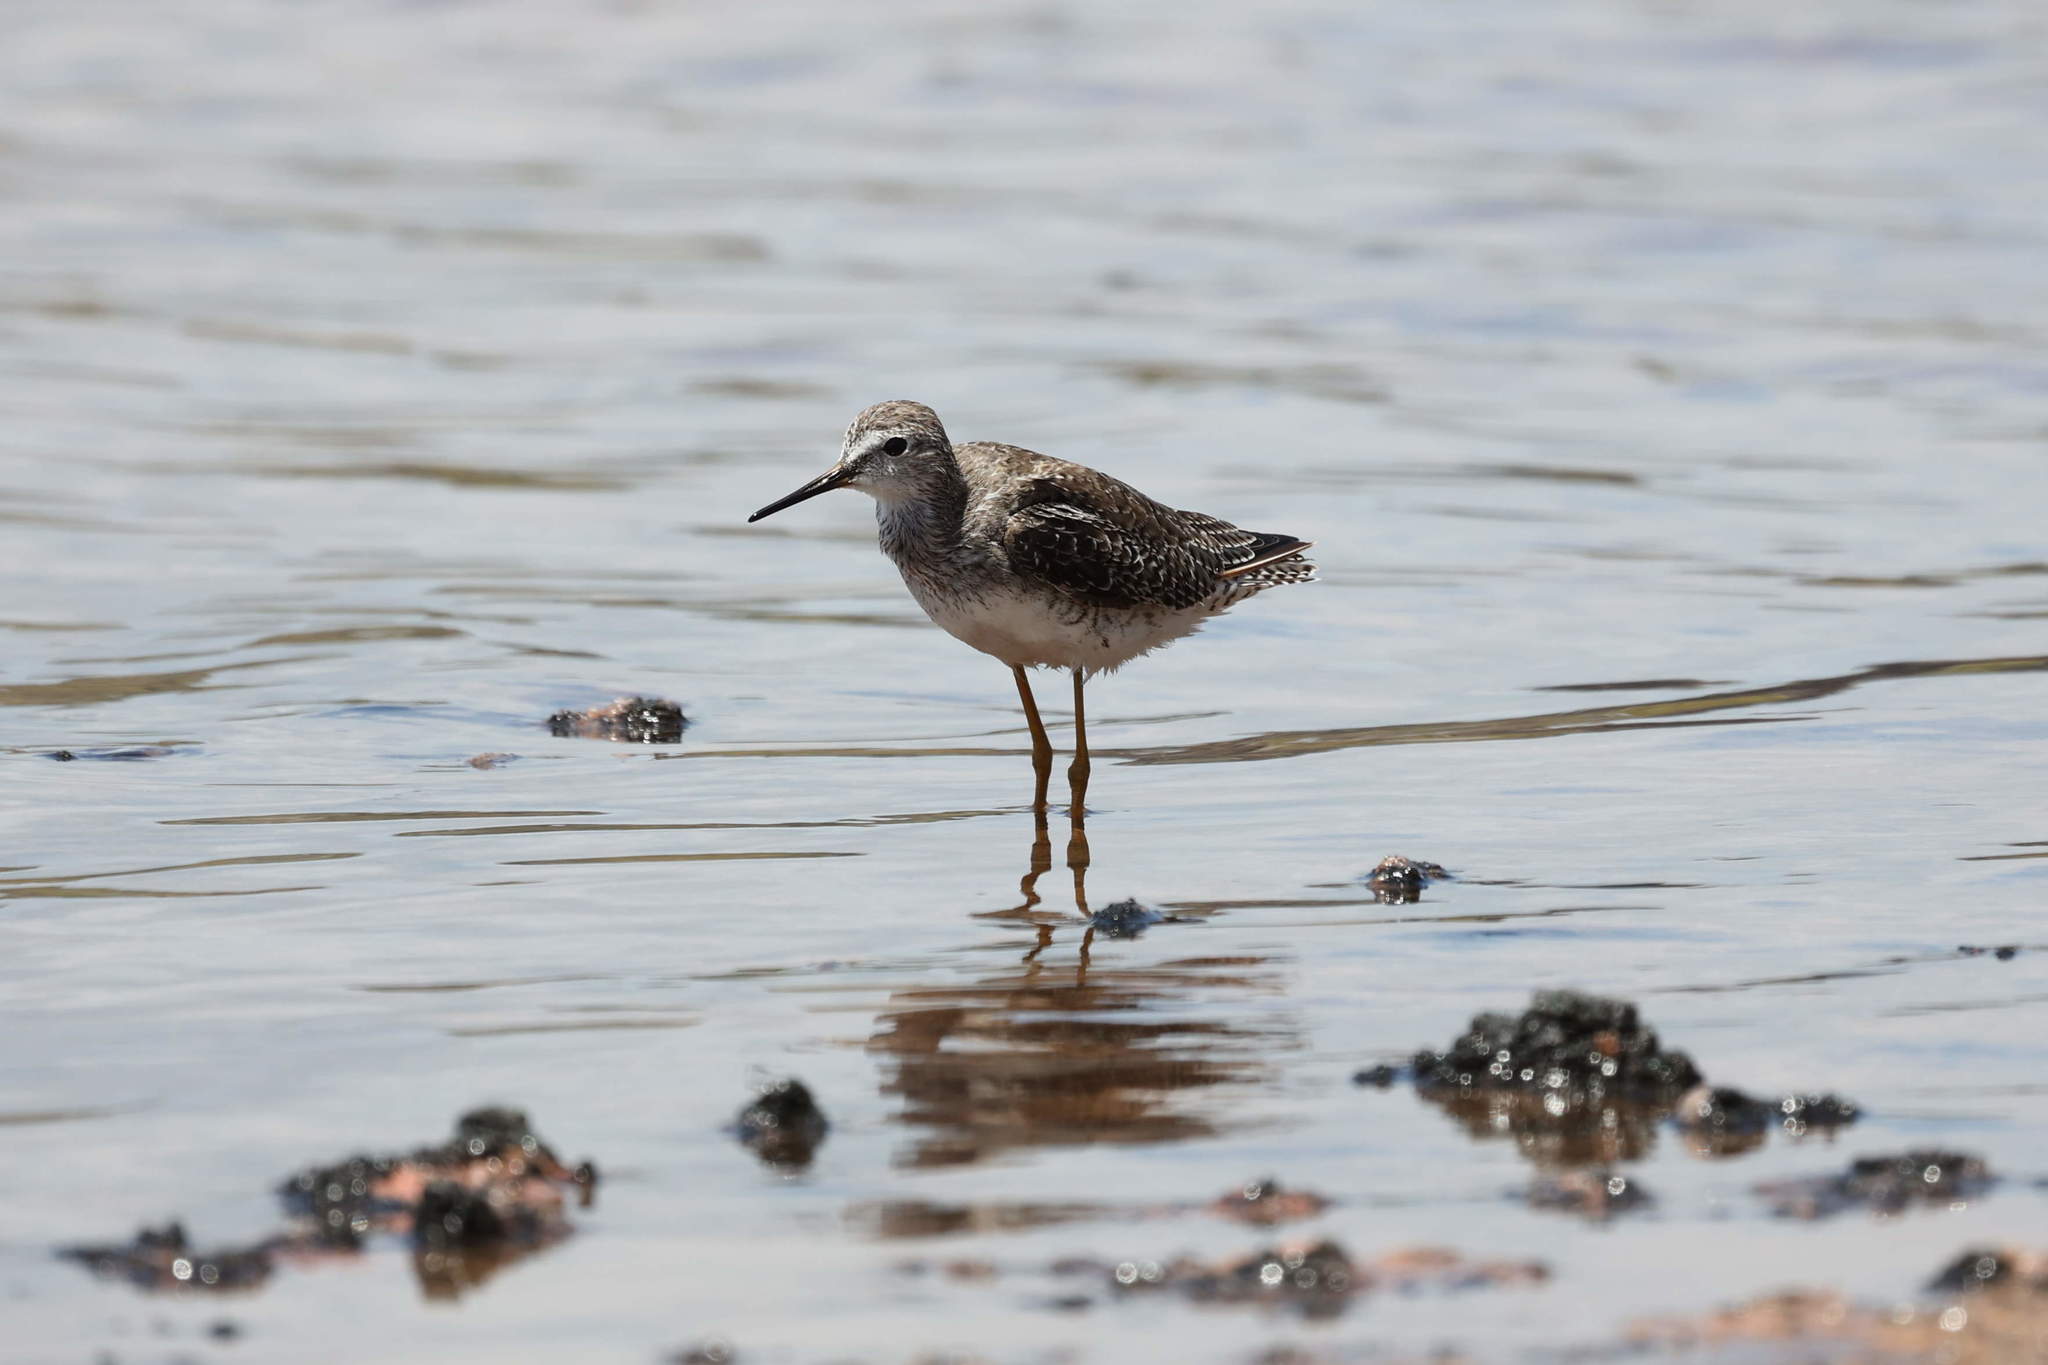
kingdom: Animalia
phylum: Chordata
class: Aves
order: Charadriiformes
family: Scolopacidae
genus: Tringa
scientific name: Tringa flavipes
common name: Lesser yellowlegs
